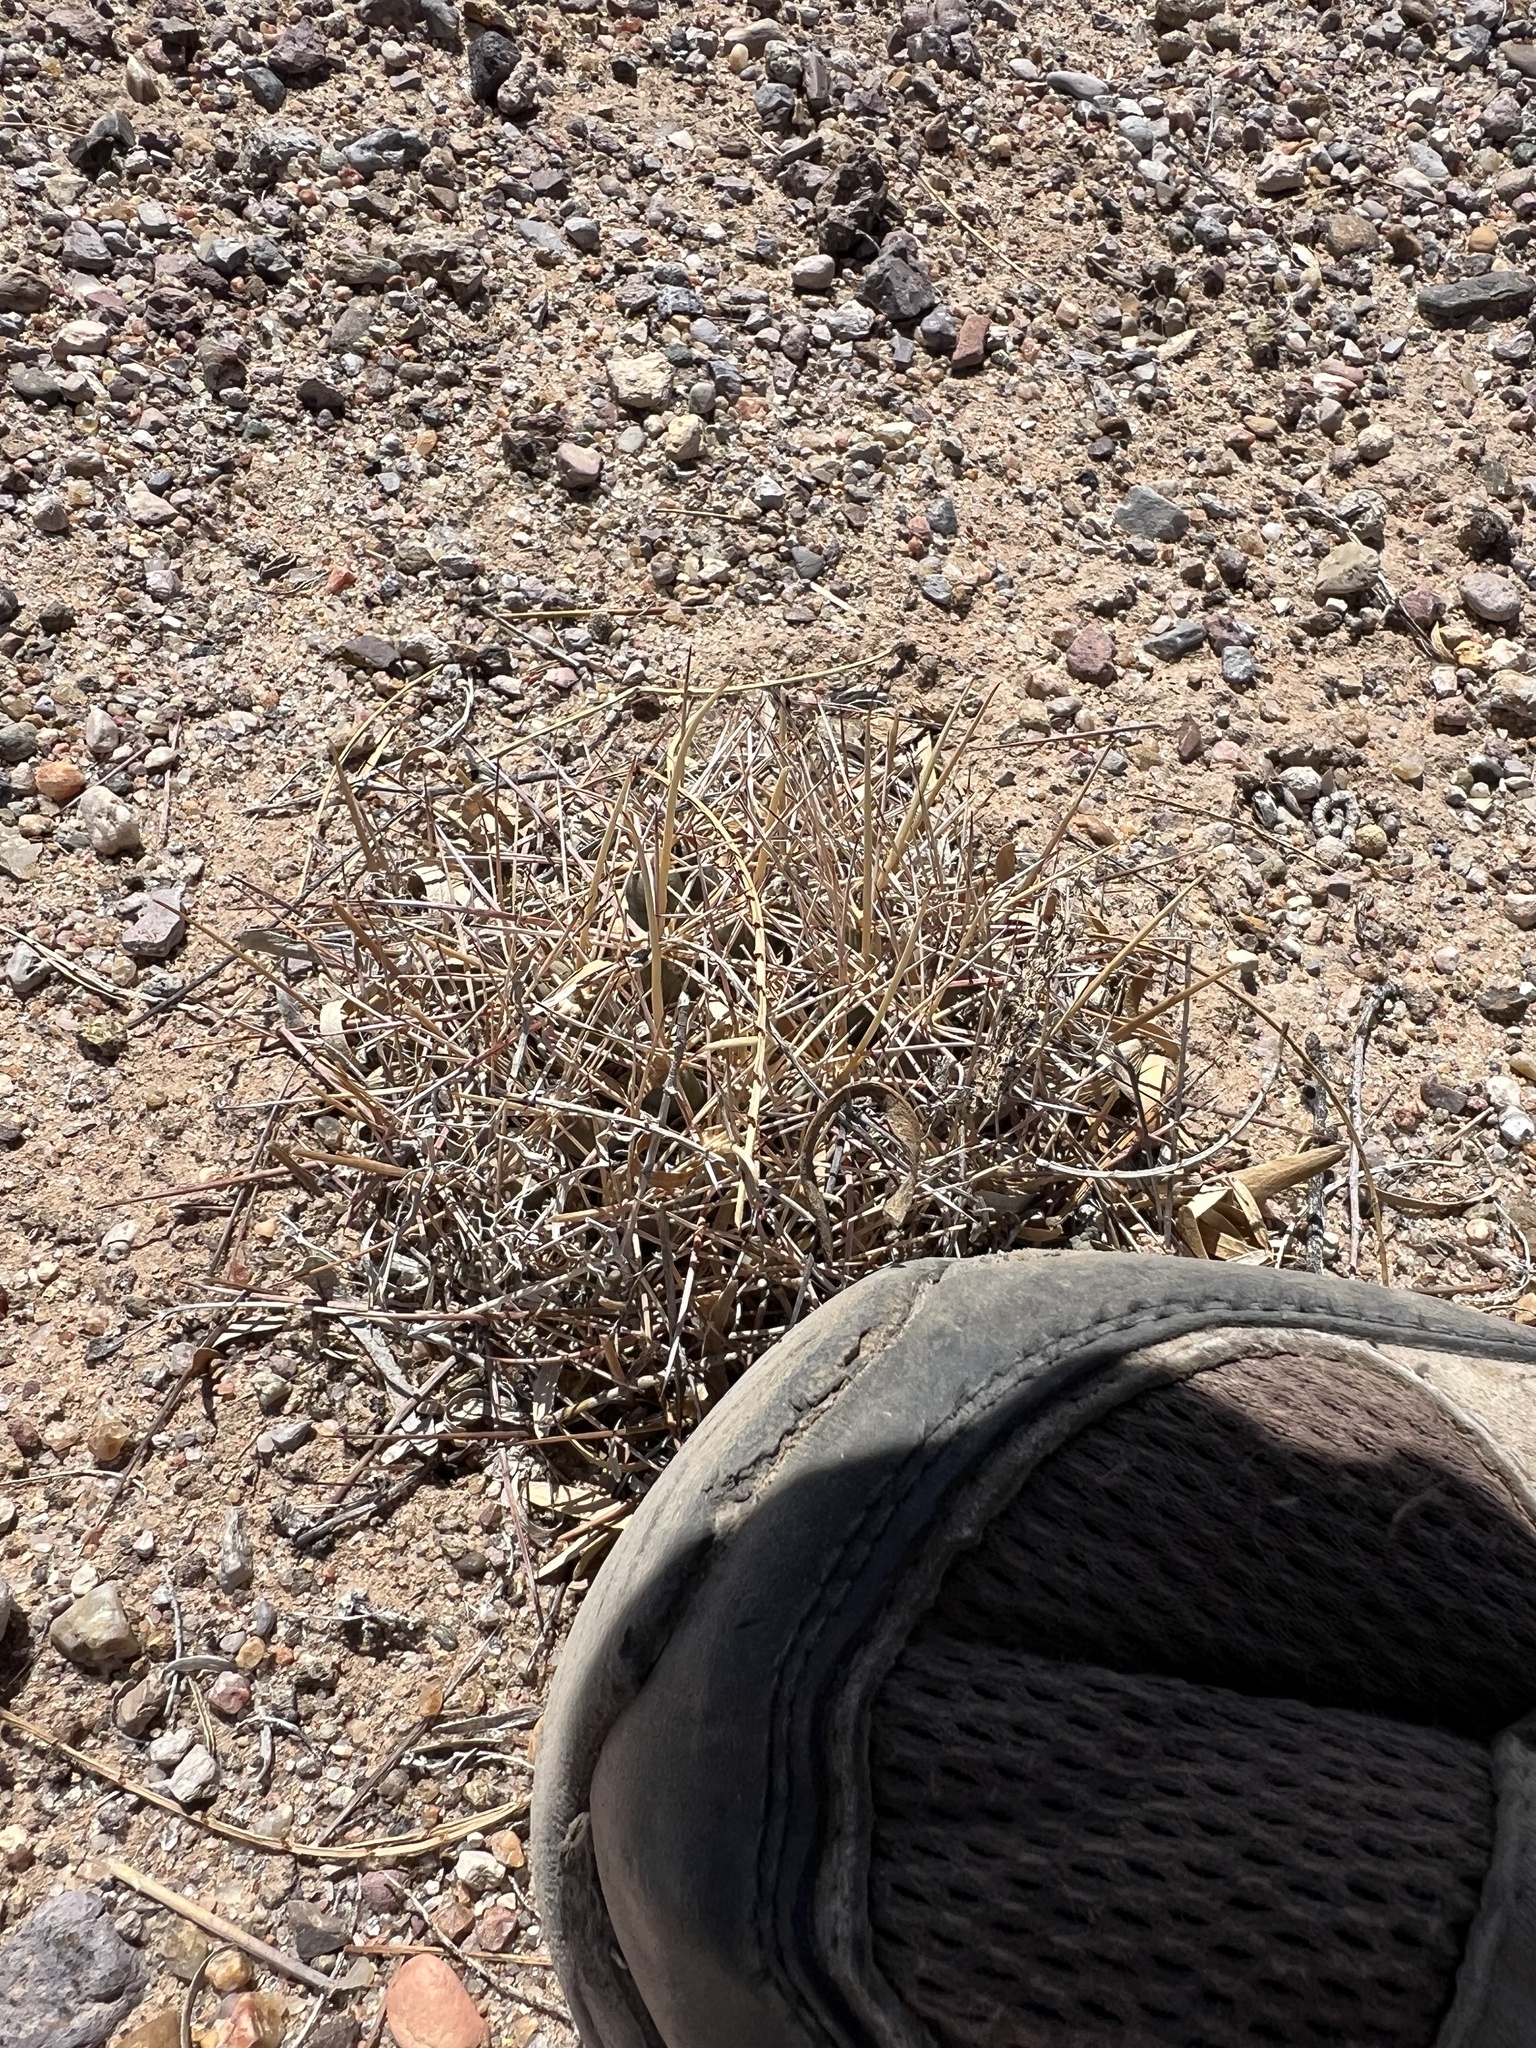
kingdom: Plantae
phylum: Tracheophyta
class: Magnoliopsida
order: Caryophyllales
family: Cactaceae
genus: Coryphantha
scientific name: Coryphantha robustispina
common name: Pima pineapple cactus
